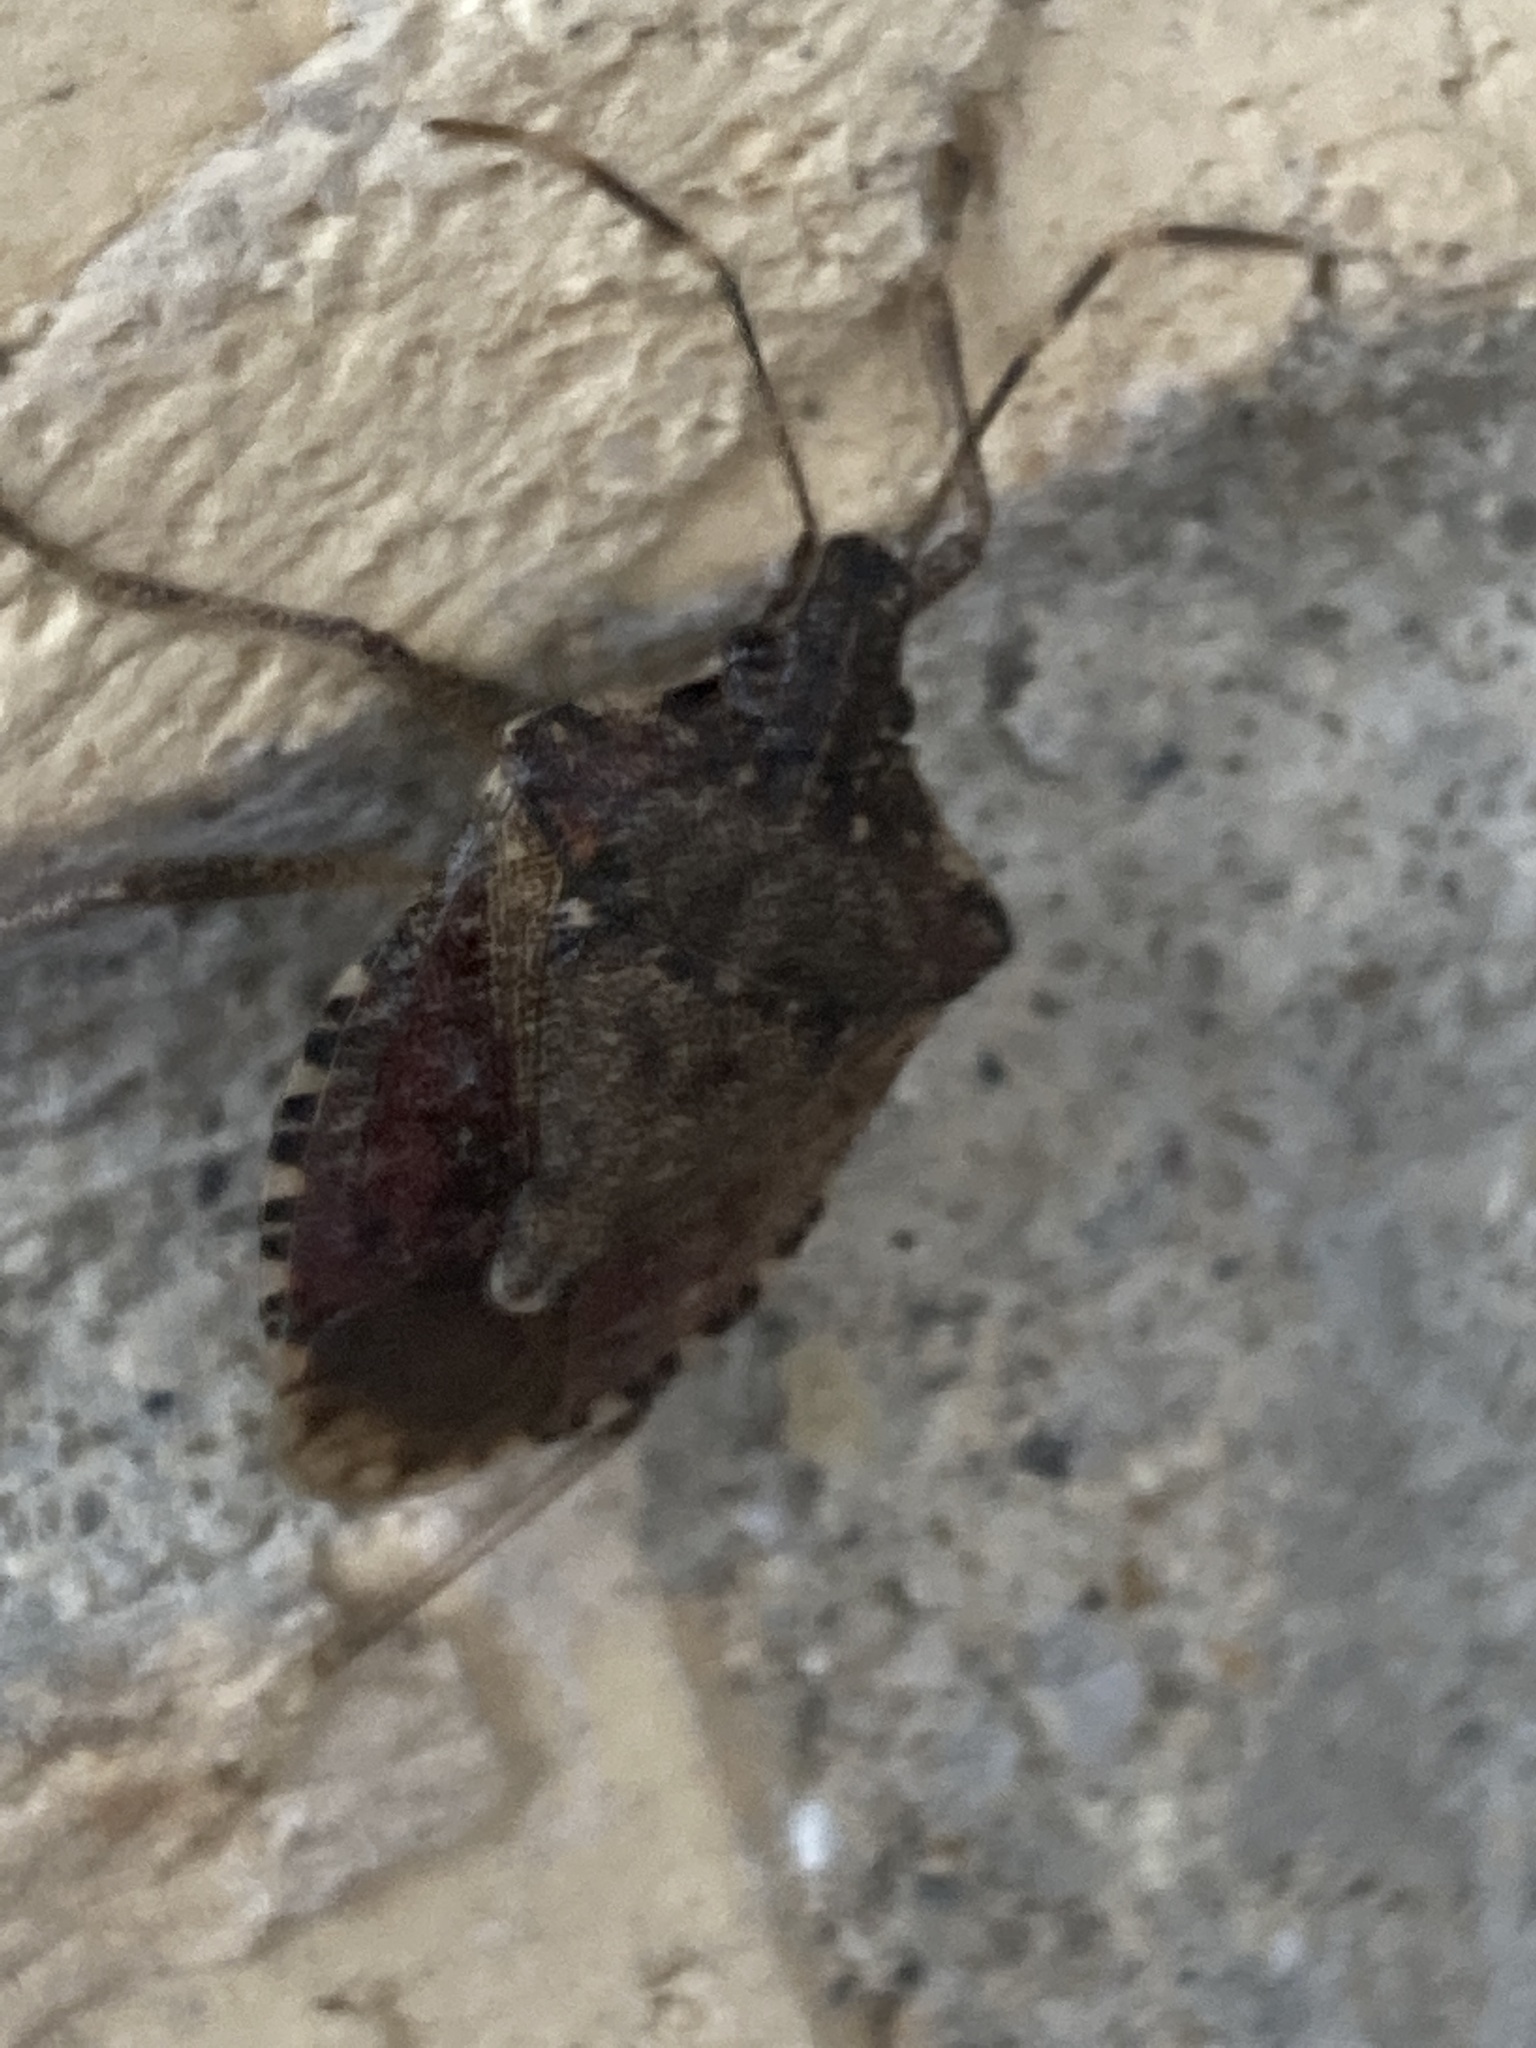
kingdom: Animalia
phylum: Arthropoda
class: Insecta
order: Hemiptera
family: Pentatomidae
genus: Halyomorpha
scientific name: Halyomorpha halys
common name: Brown marmorated stink bug
